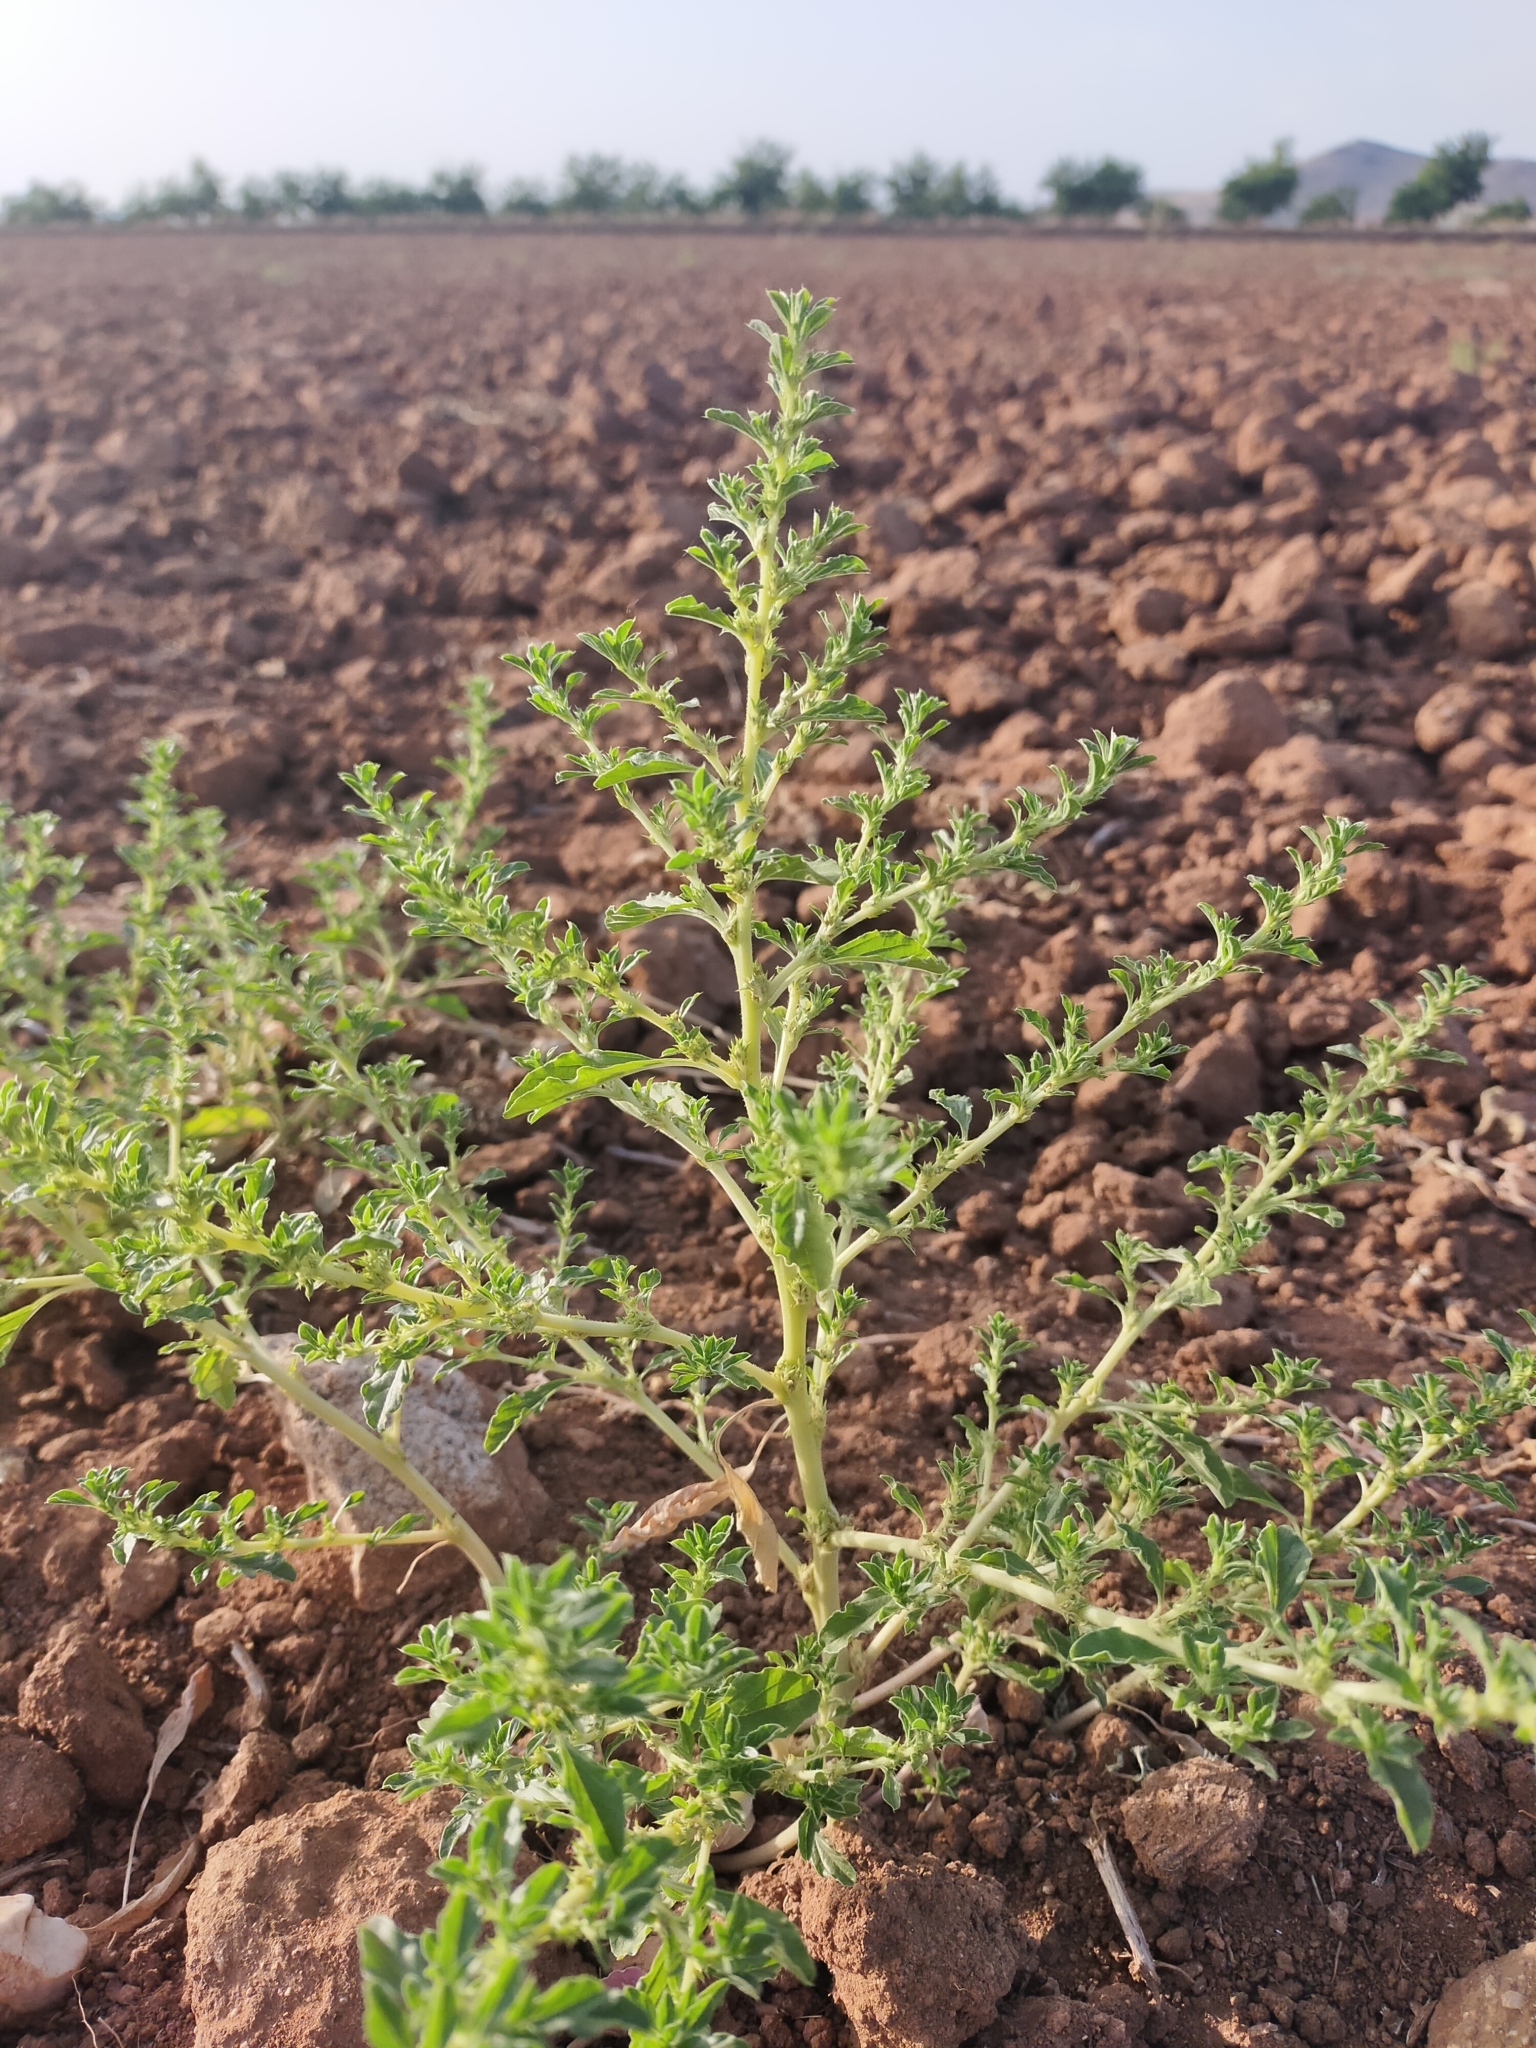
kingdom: Plantae
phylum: Tracheophyta
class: Magnoliopsida
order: Caryophyllales
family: Amaranthaceae
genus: Amaranthus
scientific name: Amaranthus albus
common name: White pigweed
